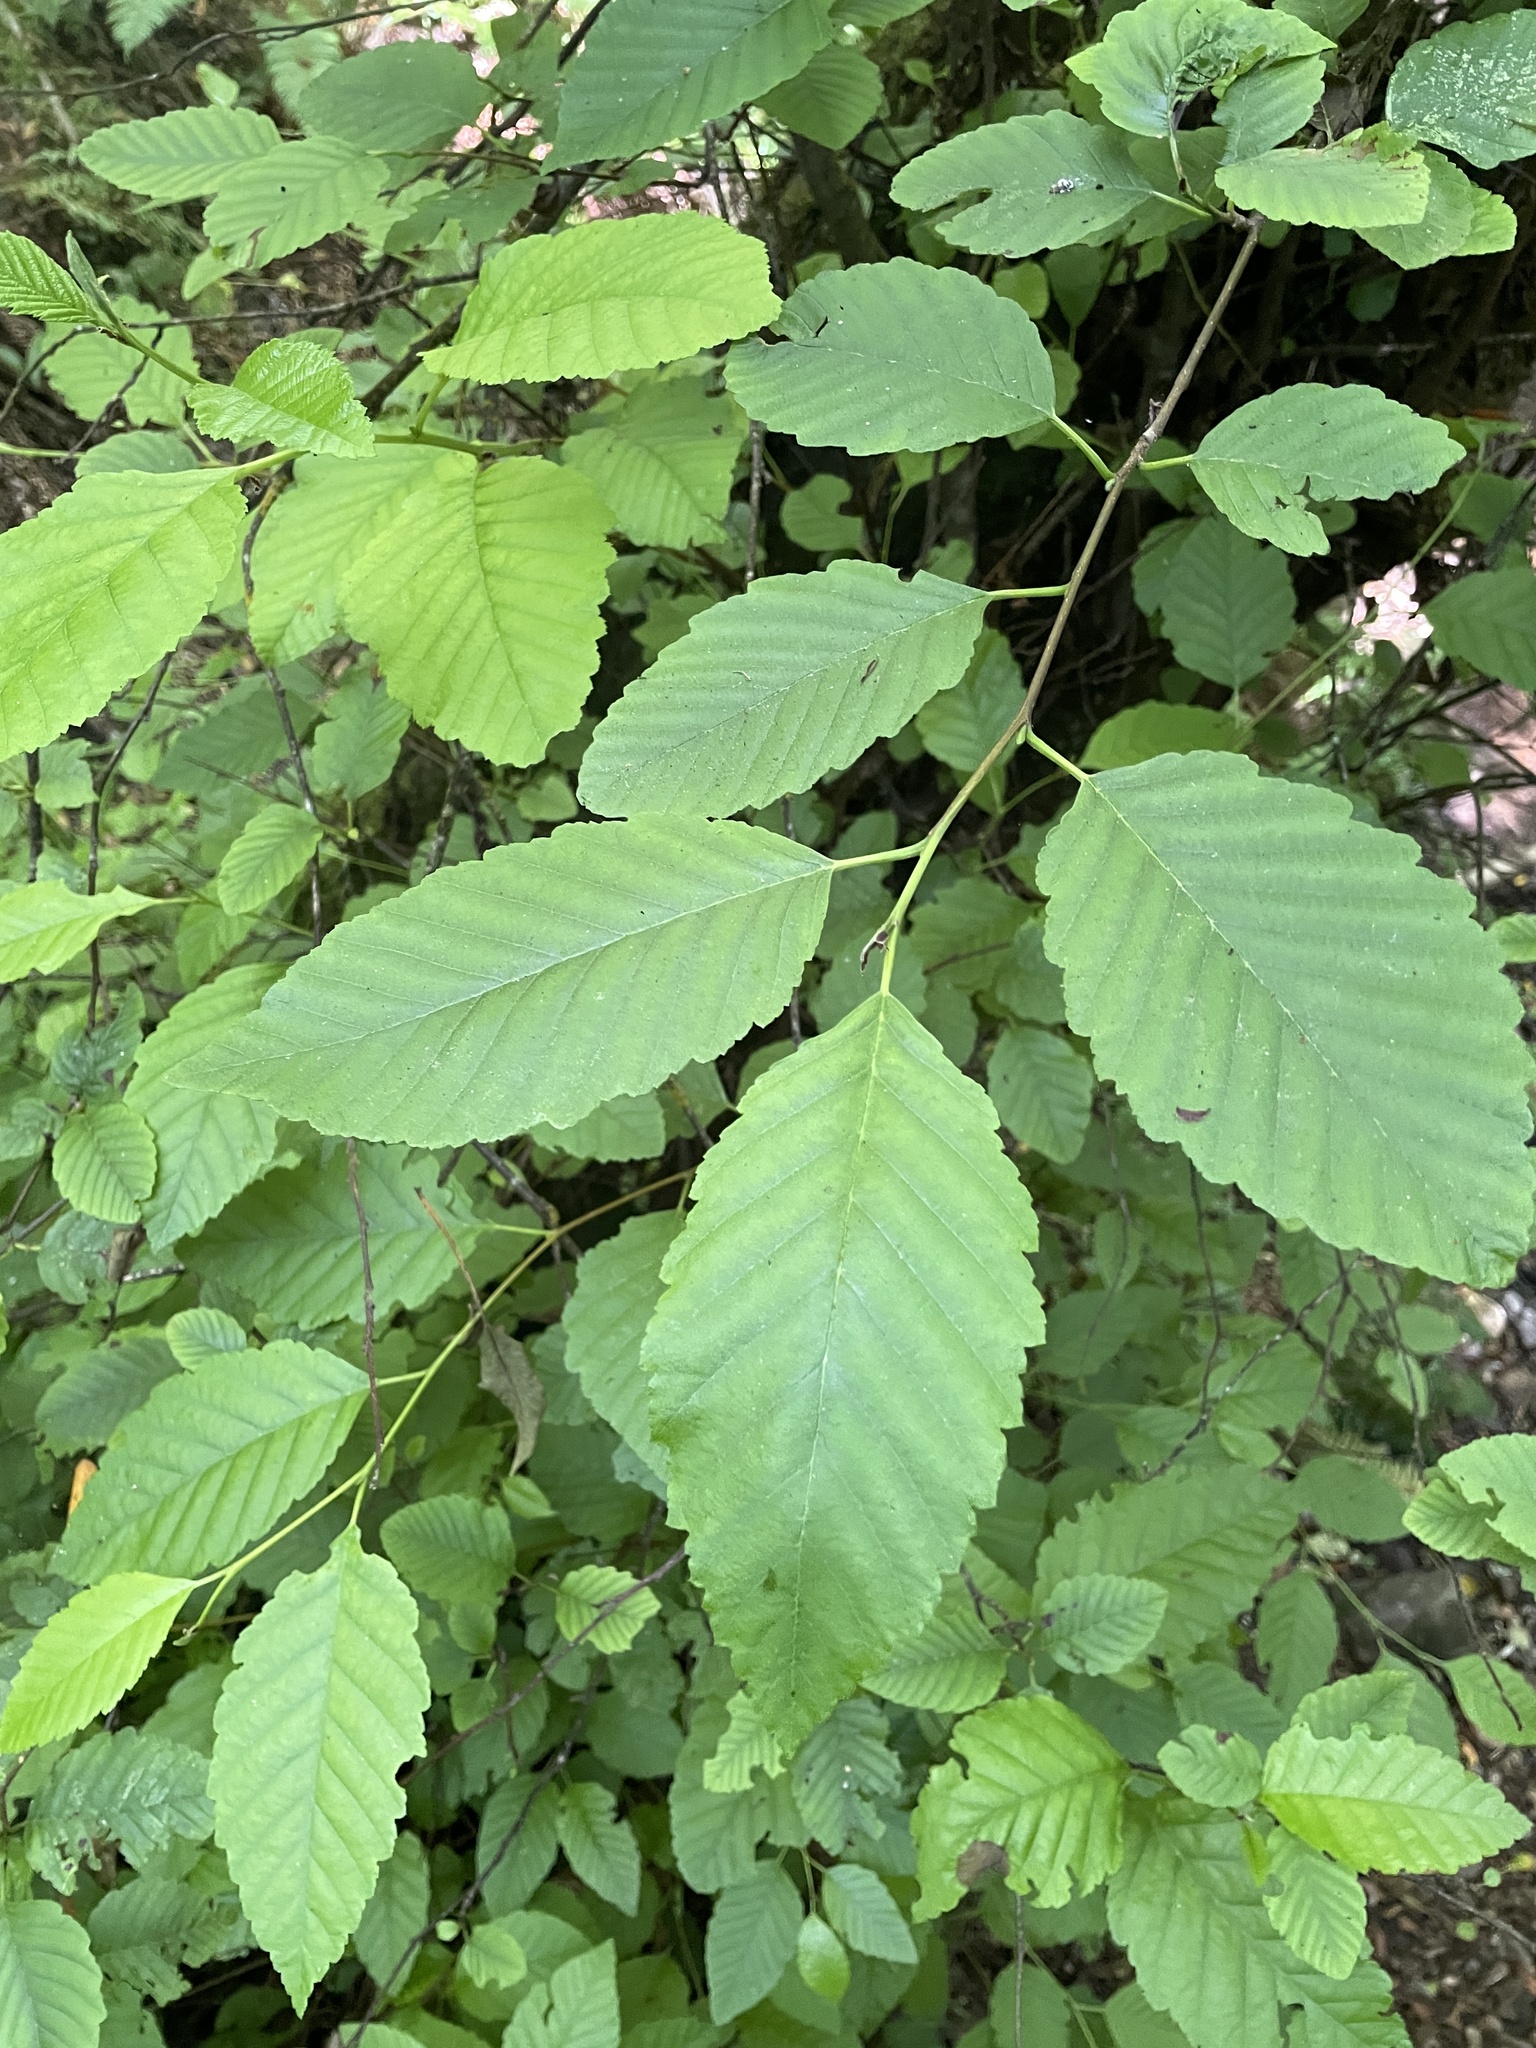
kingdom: Plantae
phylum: Tracheophyta
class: Magnoliopsida
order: Fagales
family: Betulaceae
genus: Alnus
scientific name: Alnus rubra
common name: Red alder
